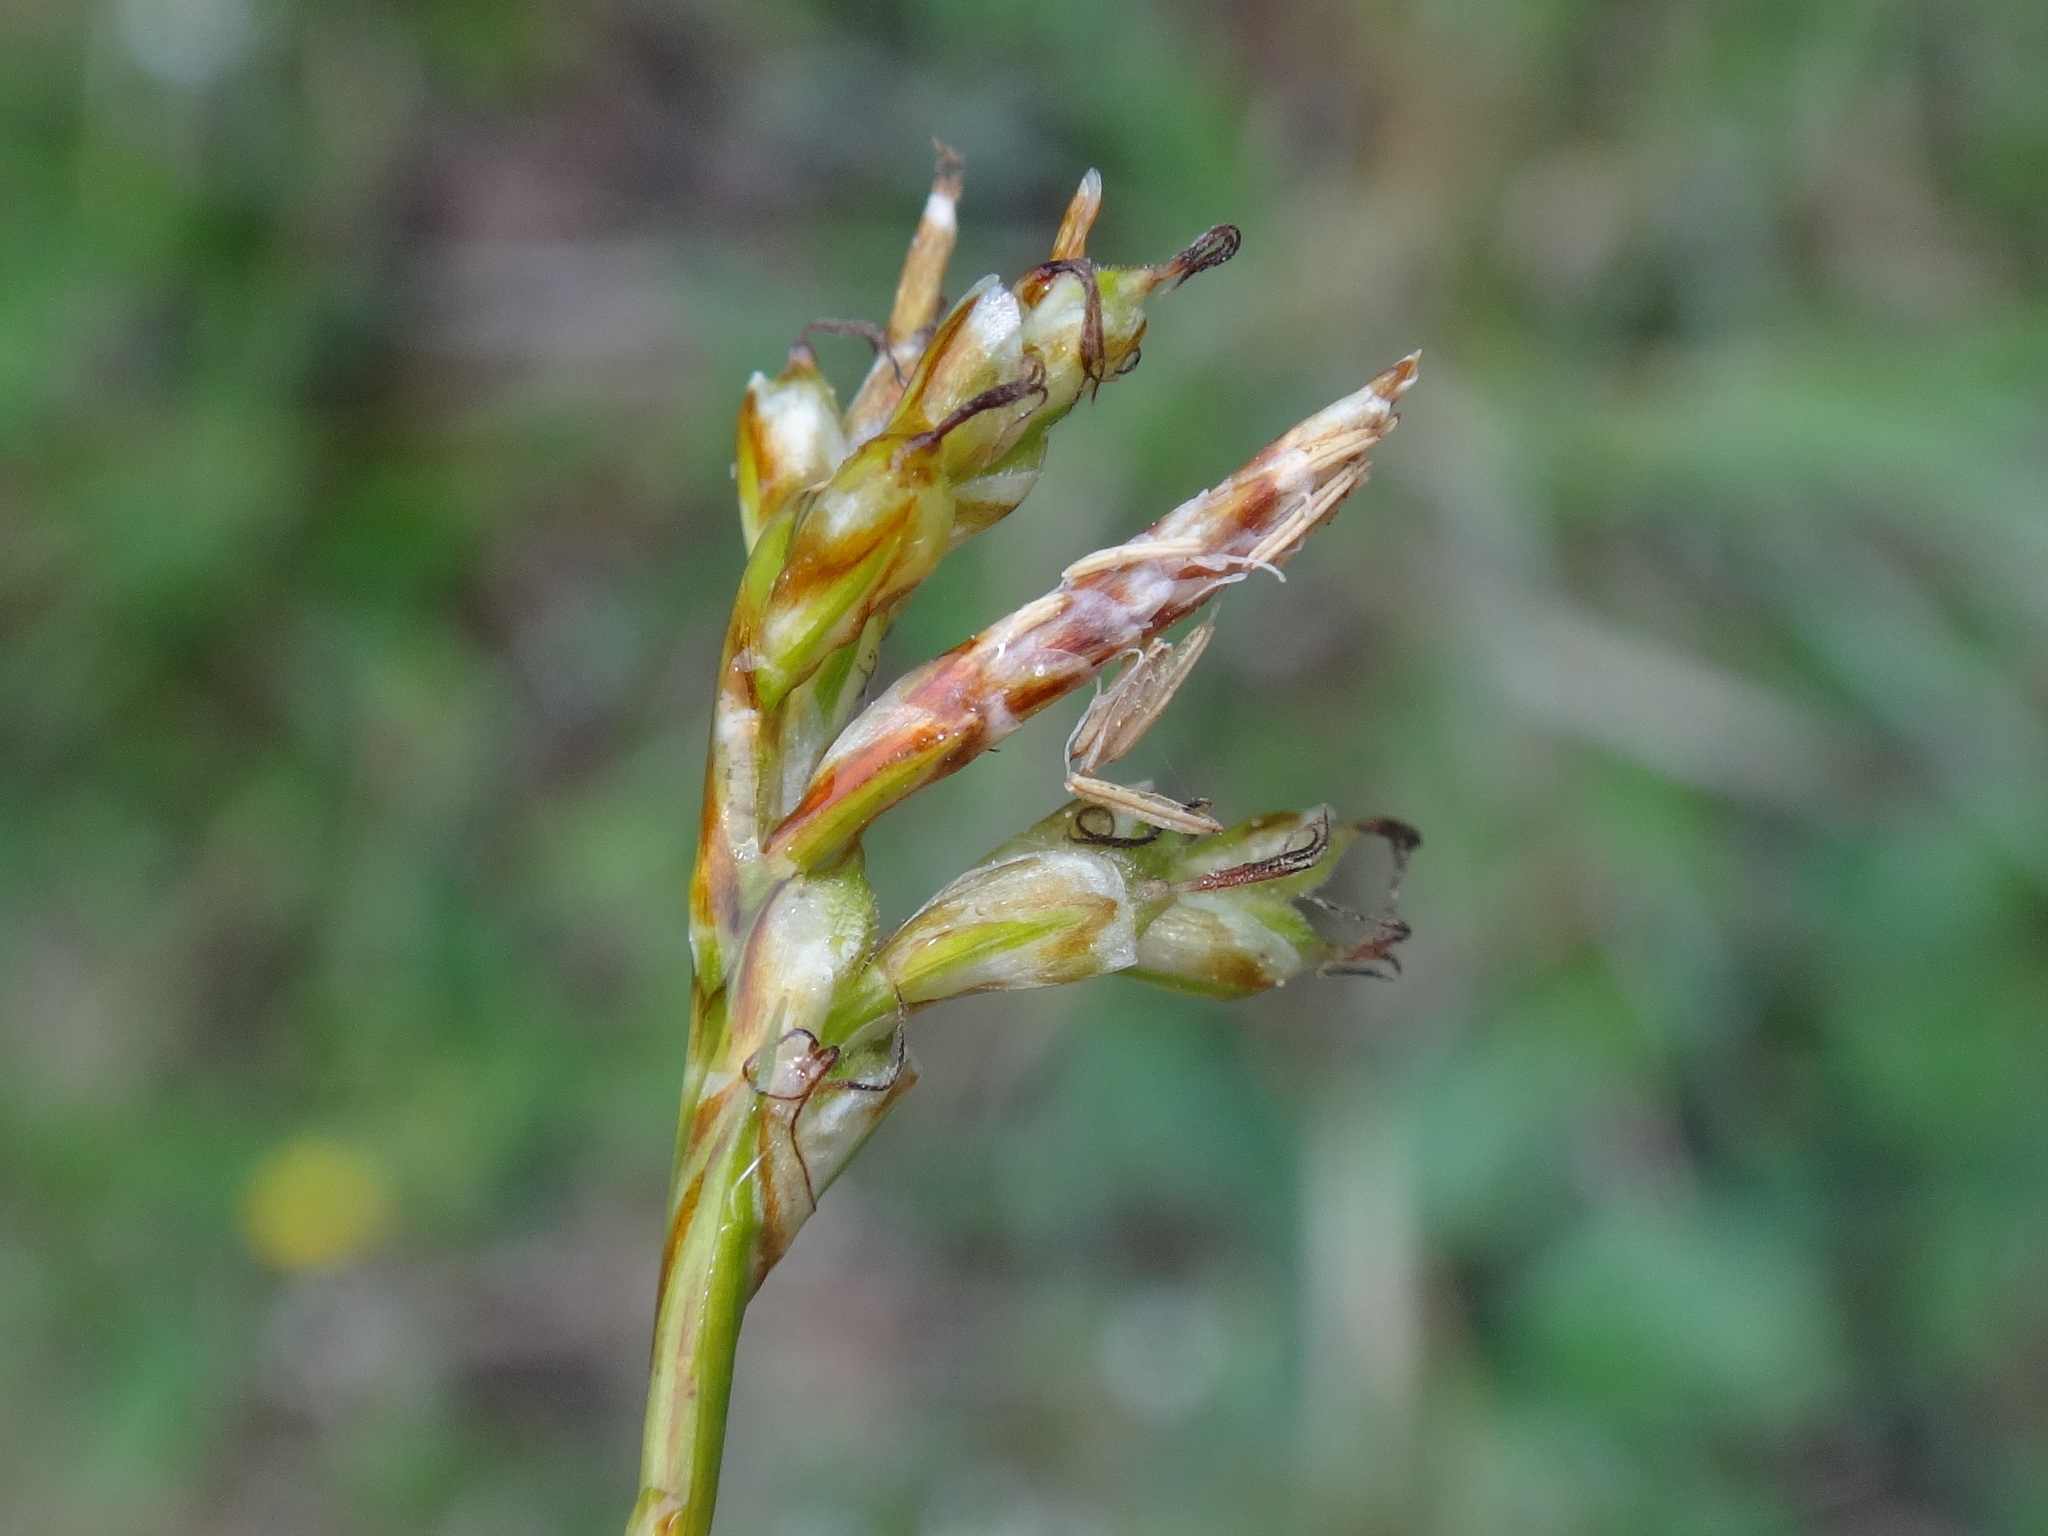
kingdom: Plantae
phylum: Tracheophyta
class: Liliopsida
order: Poales
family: Cyperaceae
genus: Carex
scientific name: Carex ornithopoda
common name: Bird's-foot sedge
